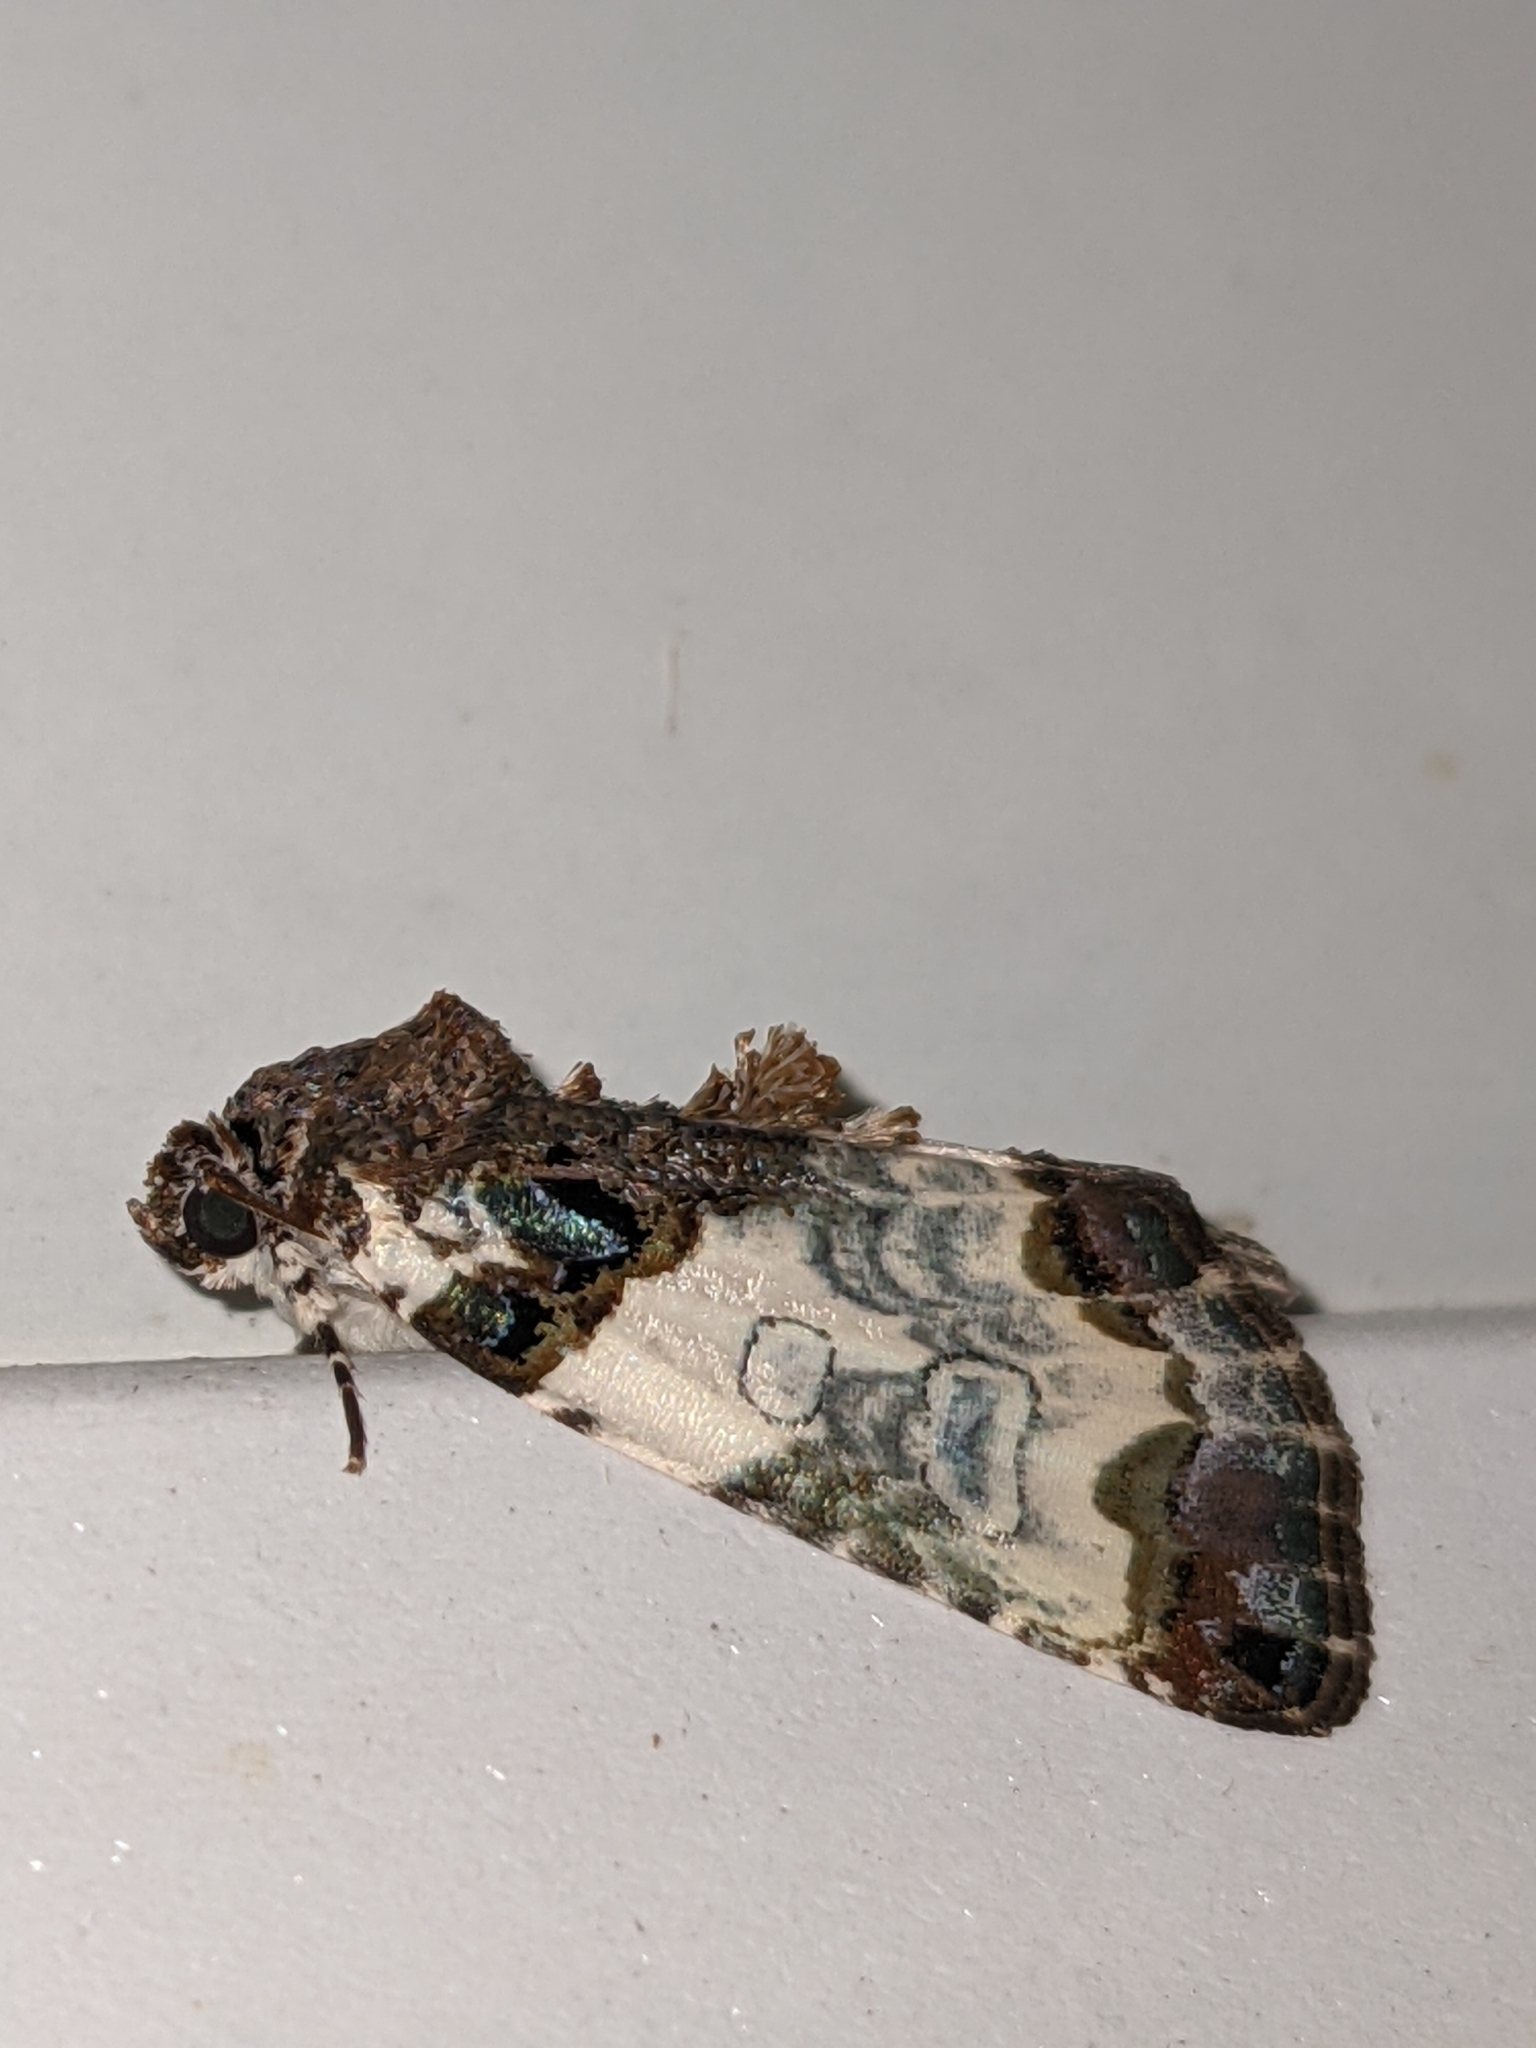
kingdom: Animalia
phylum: Arthropoda
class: Insecta
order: Lepidoptera
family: Noctuidae
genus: Cerma
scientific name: Cerma cerintha
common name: Tufted bird-dropping moth
